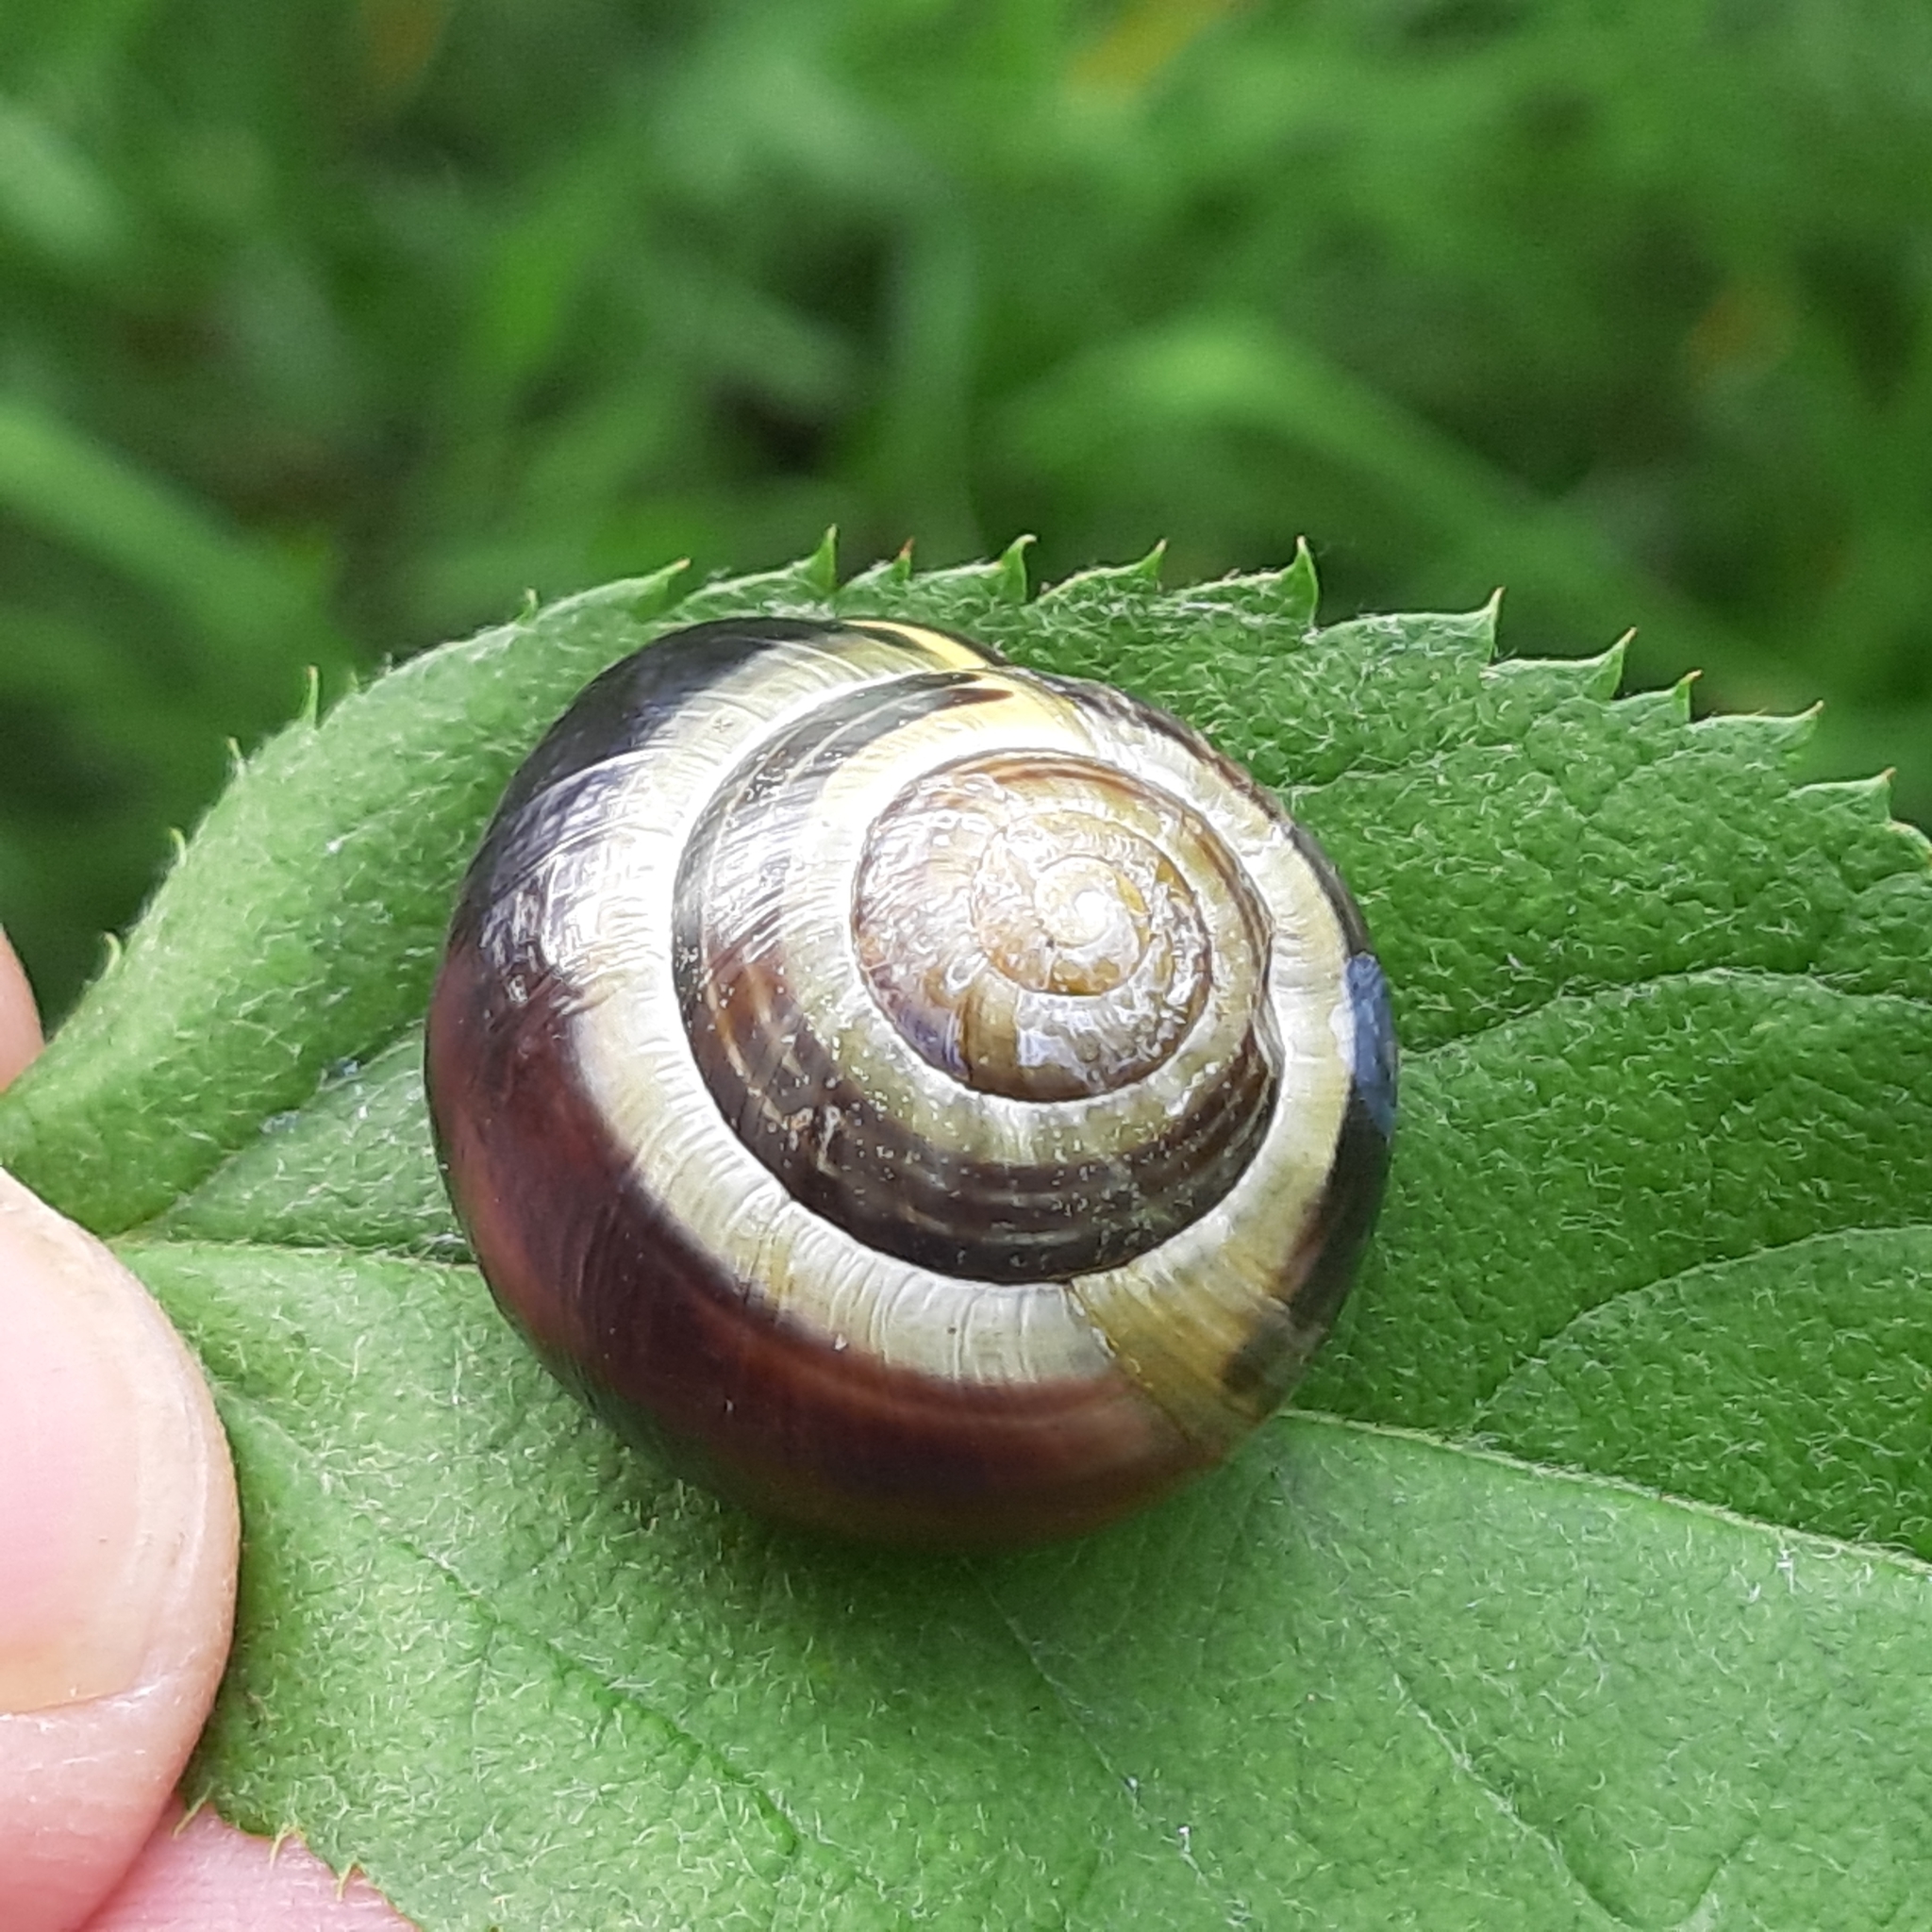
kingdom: Animalia
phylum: Mollusca
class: Gastropoda
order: Stylommatophora
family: Helicidae
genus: Cepaea
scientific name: Cepaea nemoralis
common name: Grovesnail
